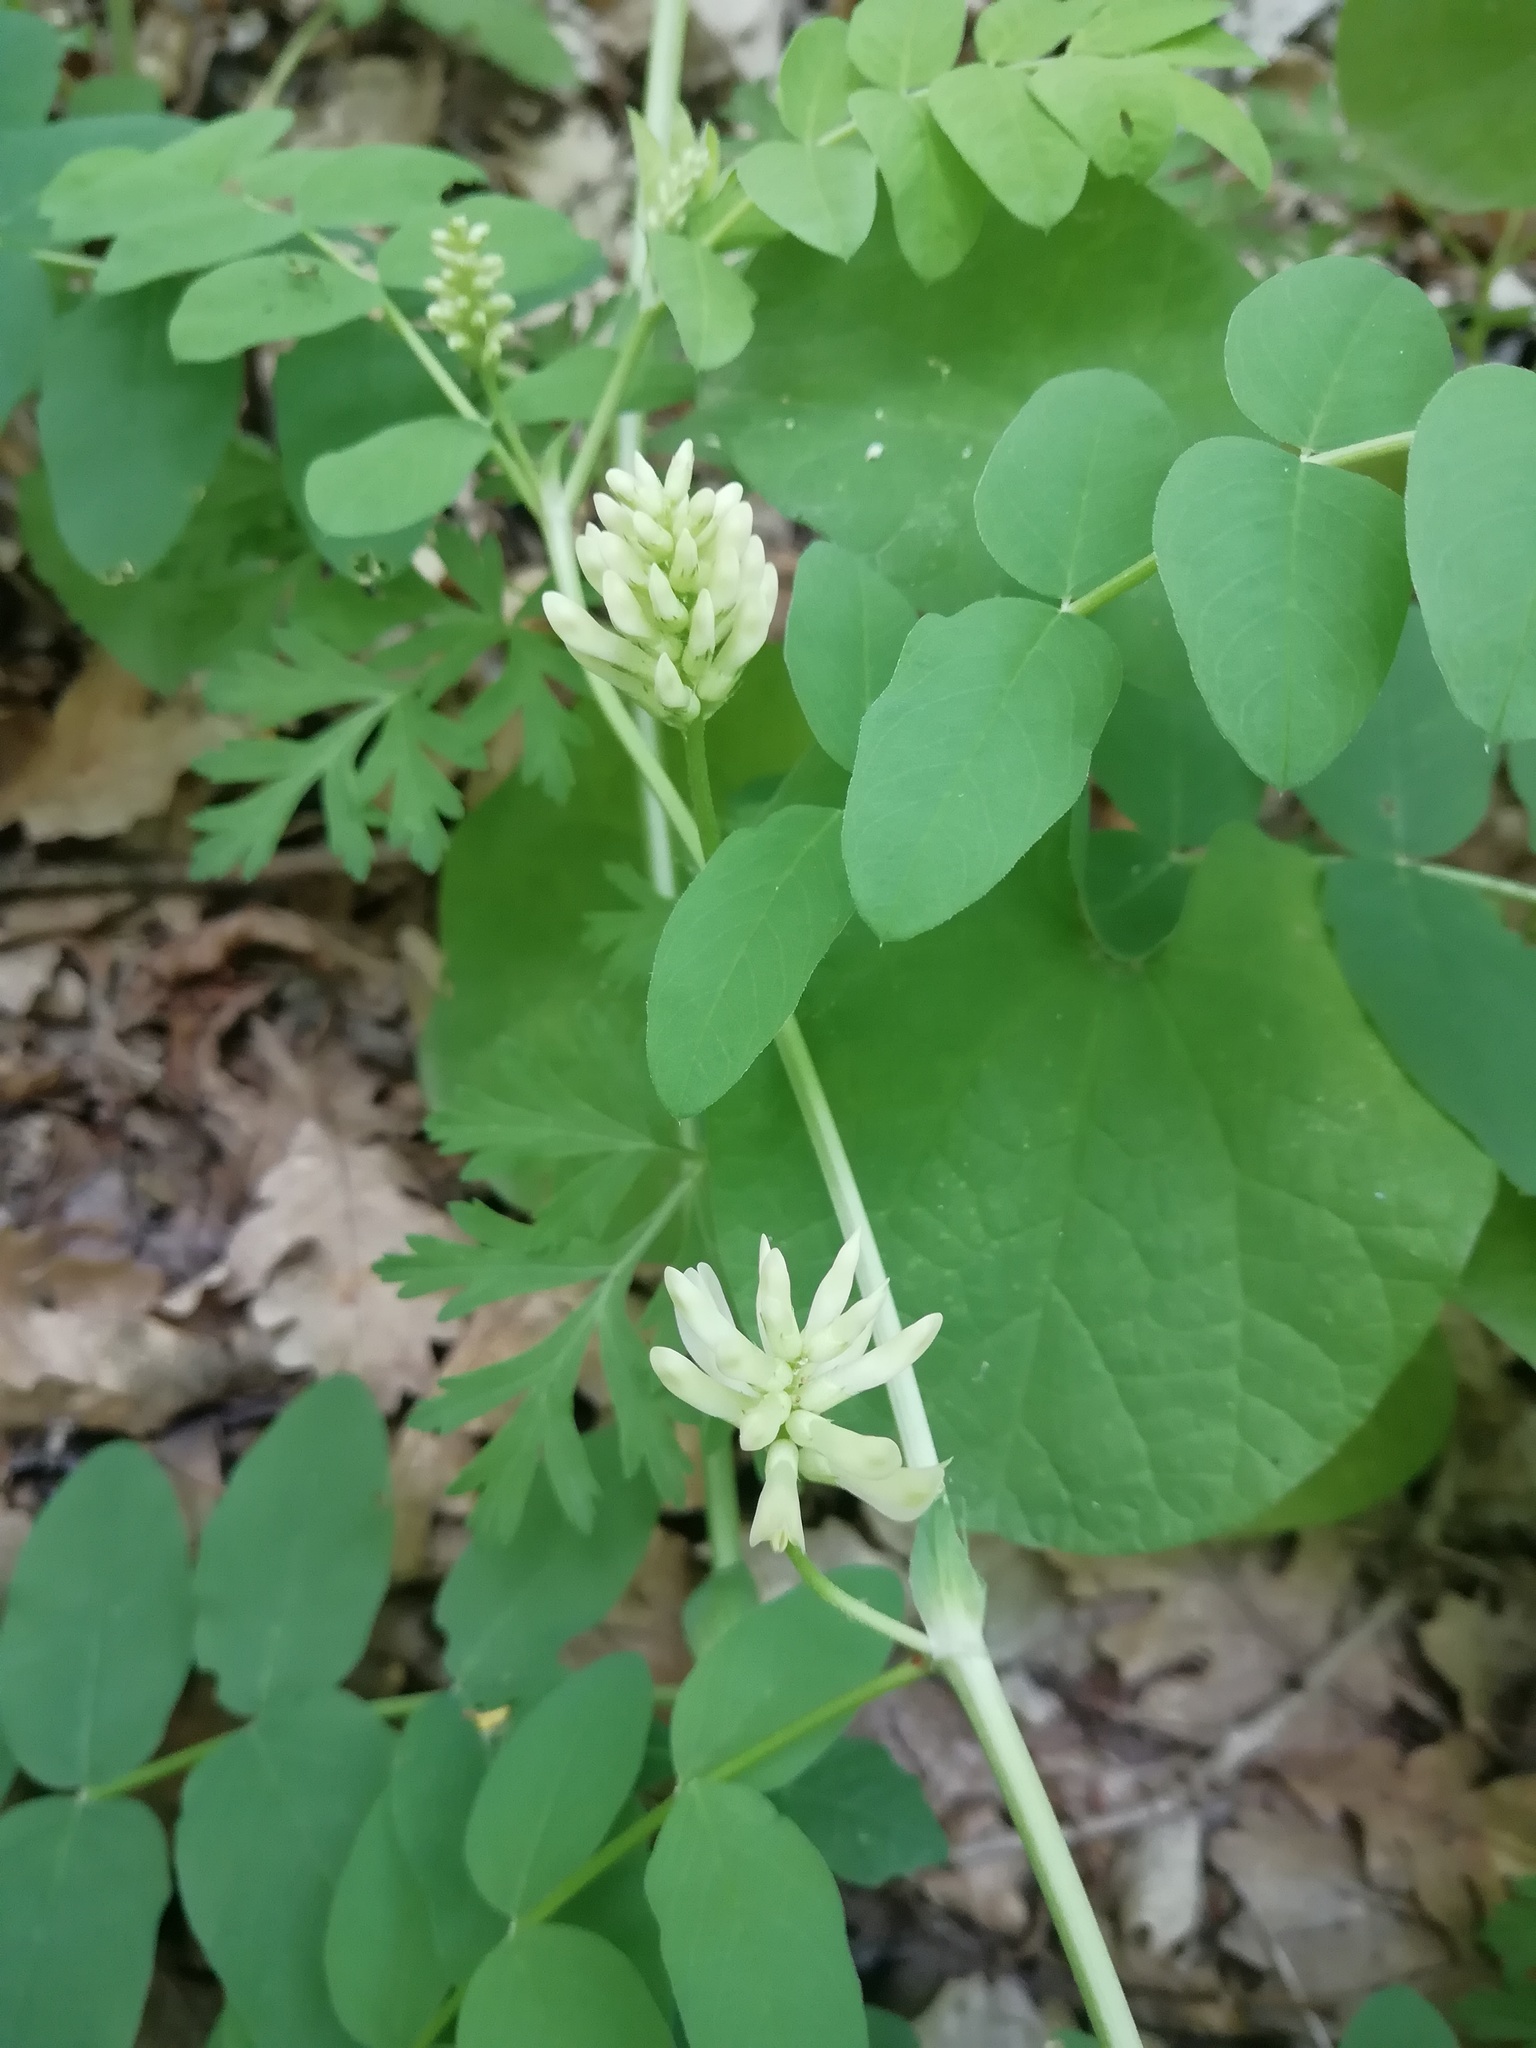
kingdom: Plantae
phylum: Tracheophyta
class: Magnoliopsida
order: Fabales
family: Fabaceae
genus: Astragalus
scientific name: Astragalus glycyphyllos
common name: Wild liquorice
